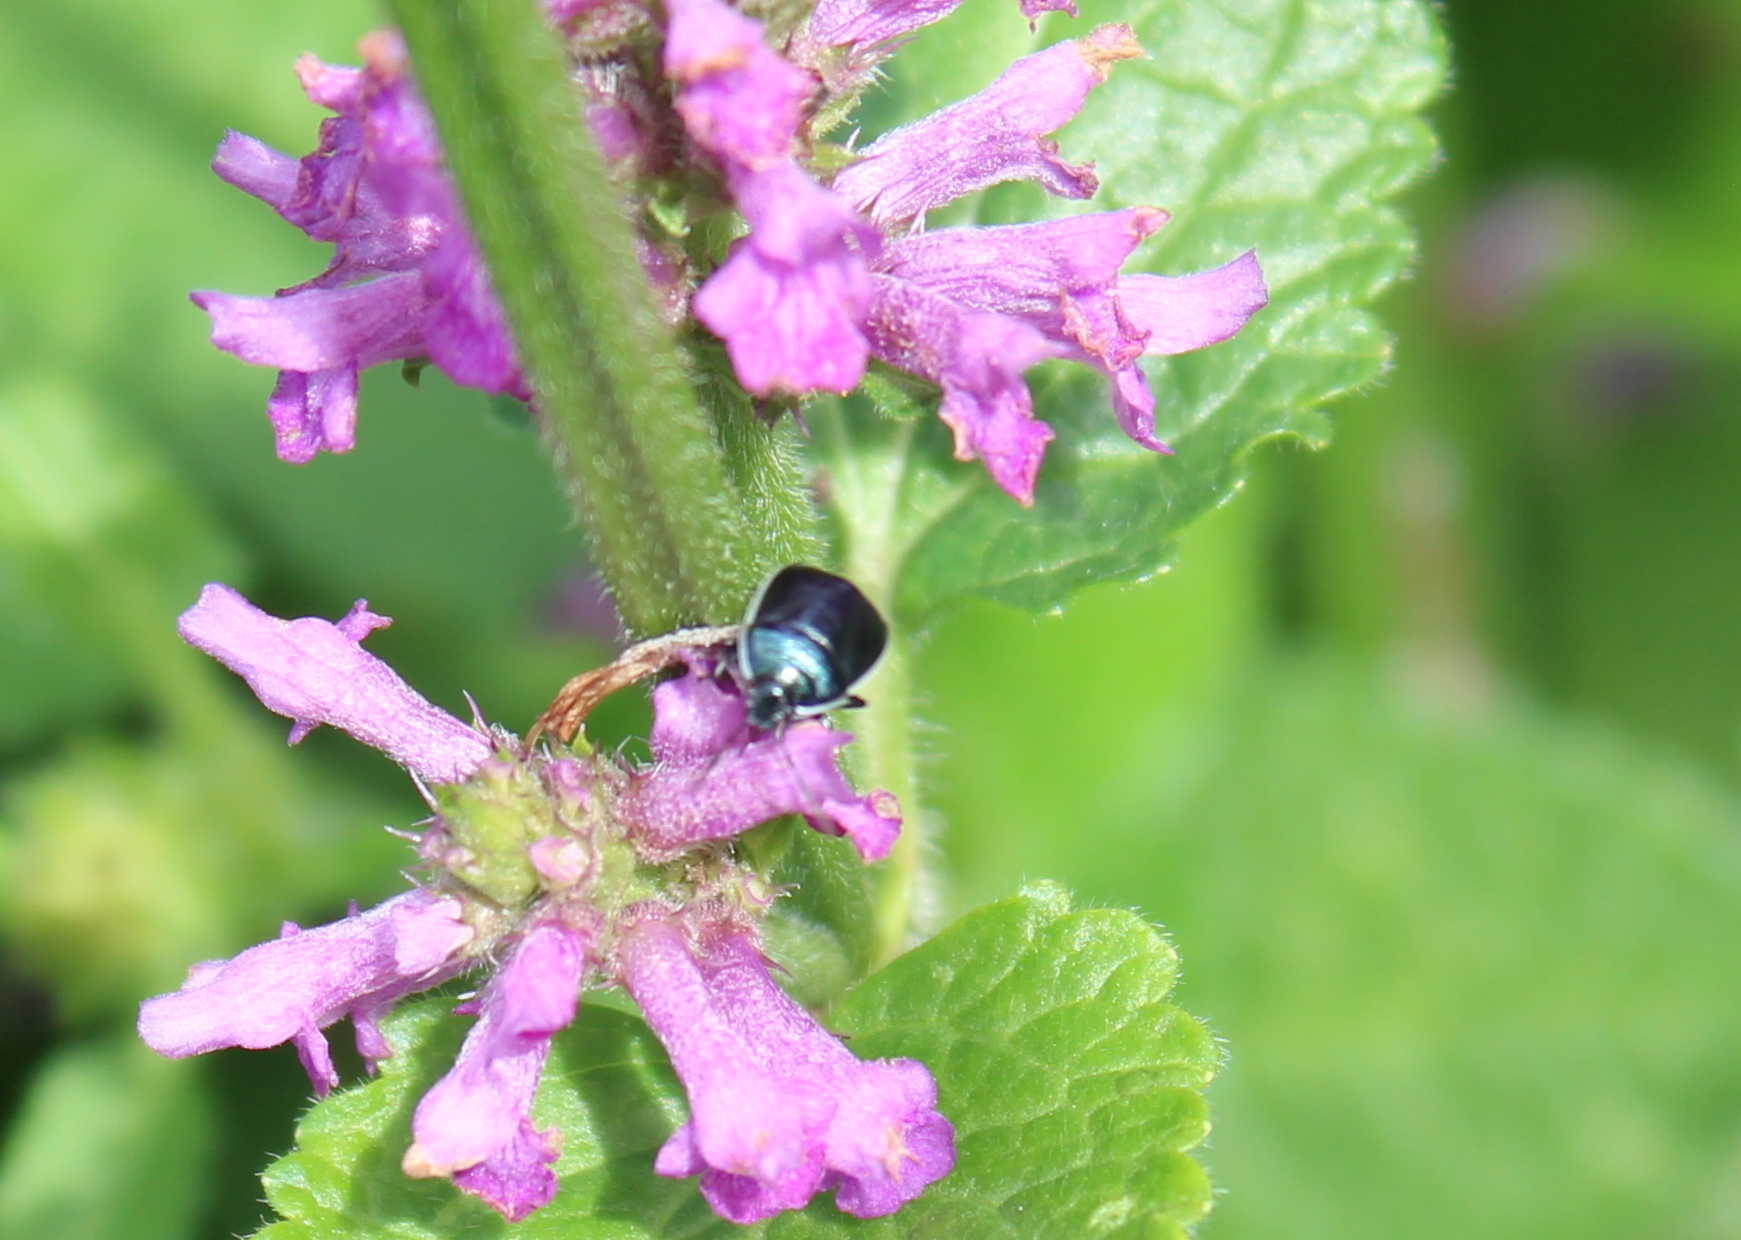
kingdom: Animalia
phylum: Arthropoda
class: Insecta
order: Hemiptera
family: Cydnidae
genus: Sehirus
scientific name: Sehirus cinctus
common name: White-margined burrower bug
